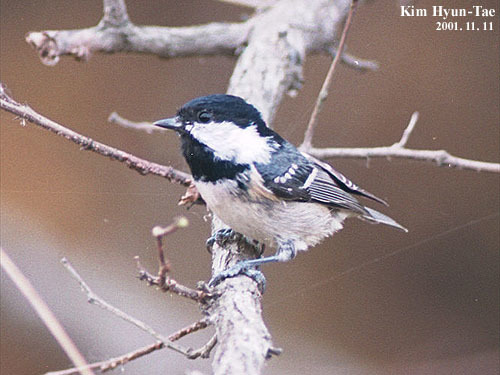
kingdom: Animalia
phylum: Chordata
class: Aves
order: Passeriformes
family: Paridae
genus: Periparus
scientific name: Periparus ater
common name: Coal tit
